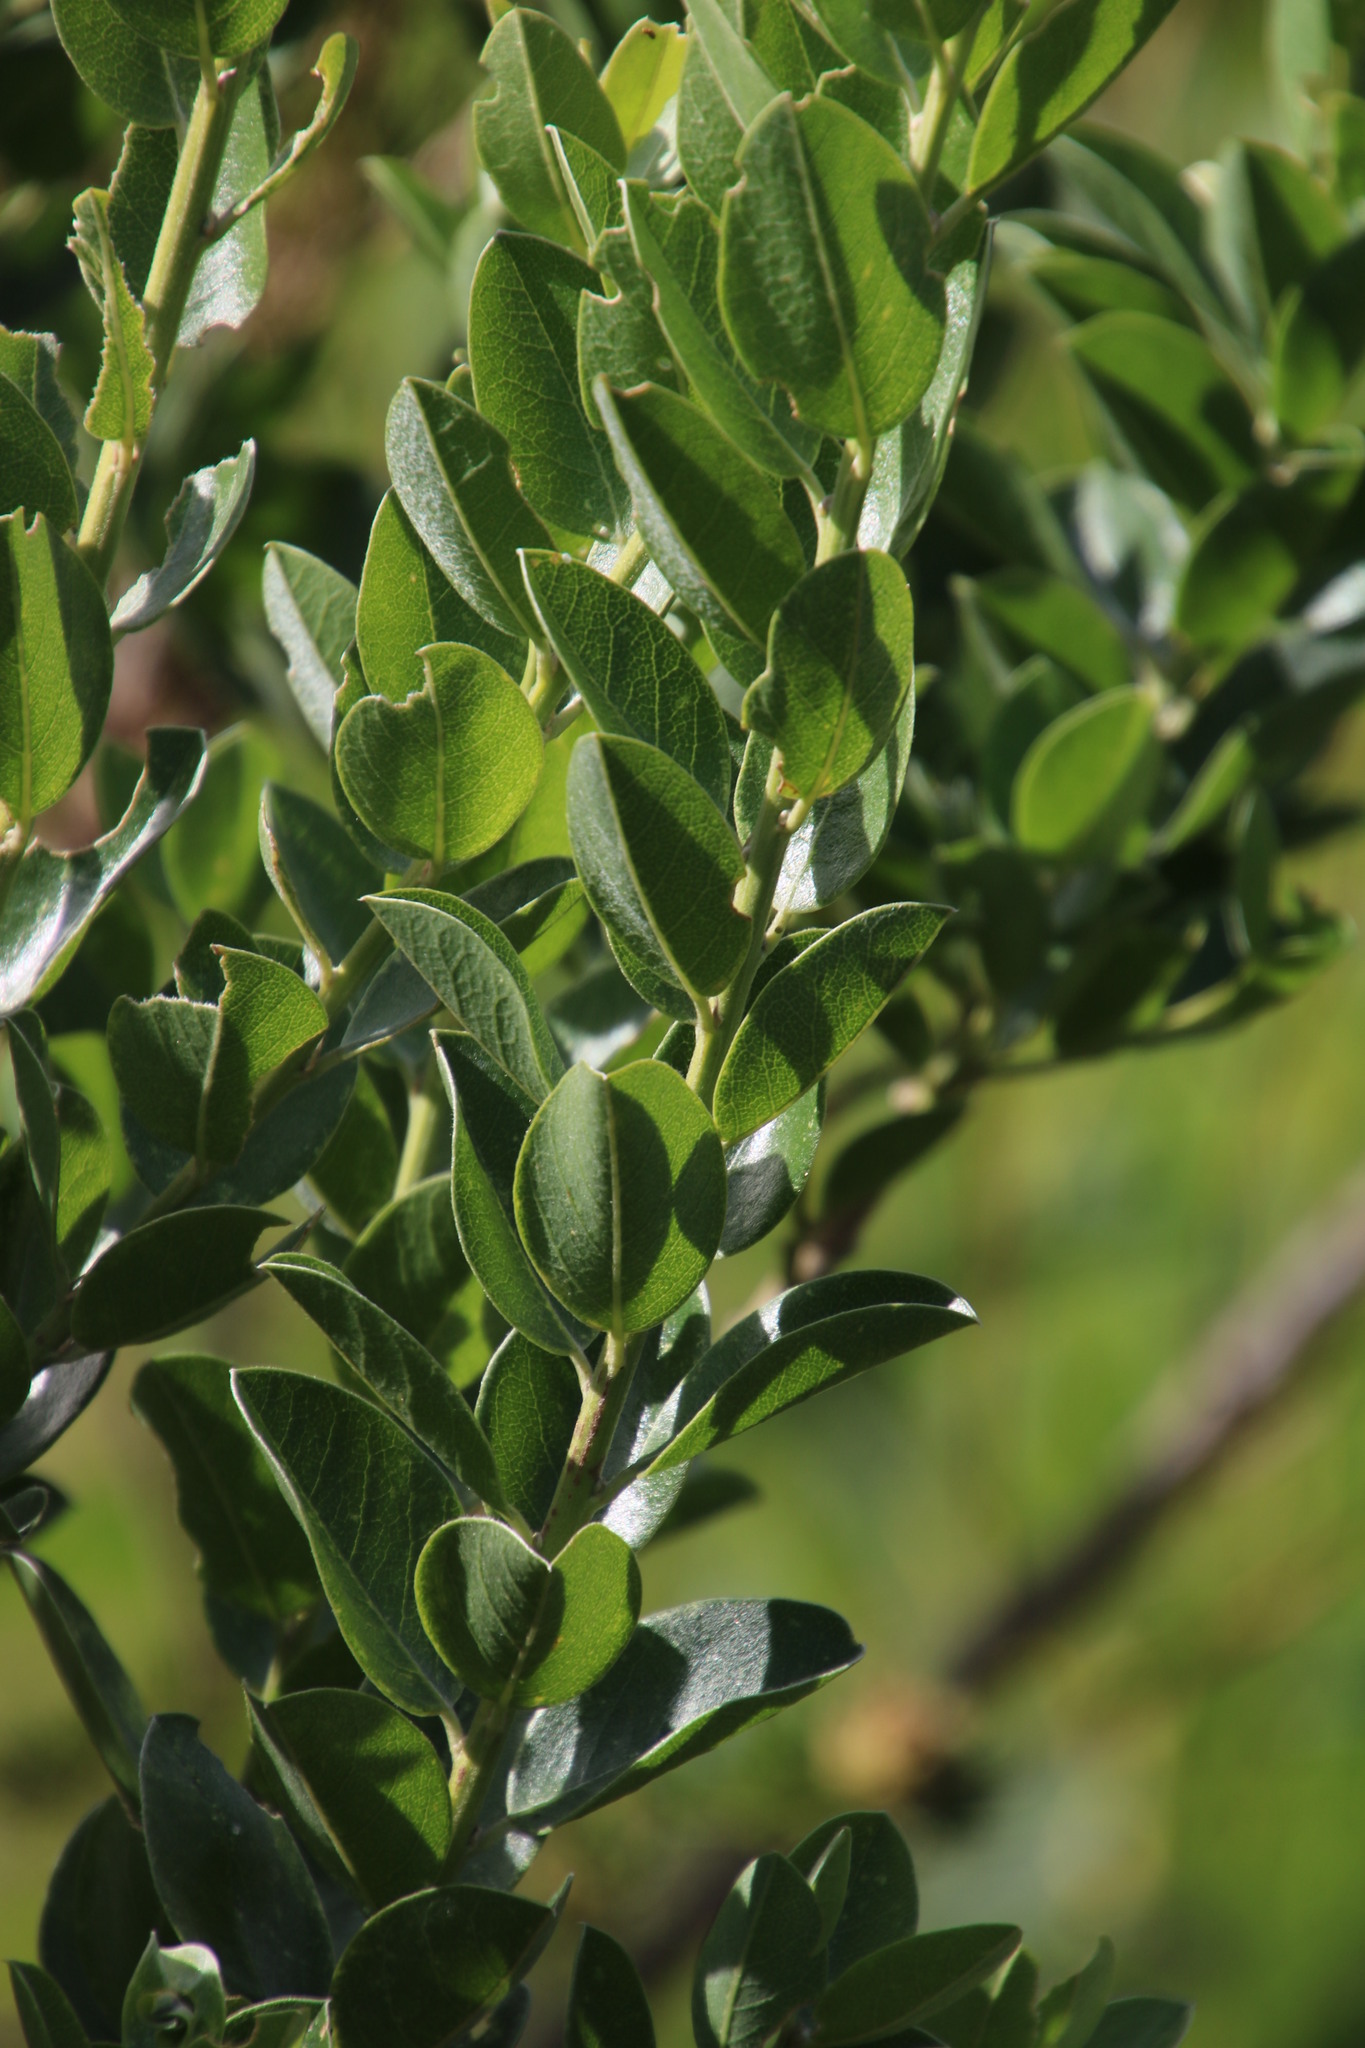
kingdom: Plantae
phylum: Tracheophyta
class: Magnoliopsida
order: Fabales
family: Fabaceae
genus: Podalyria
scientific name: Podalyria calyptrata
